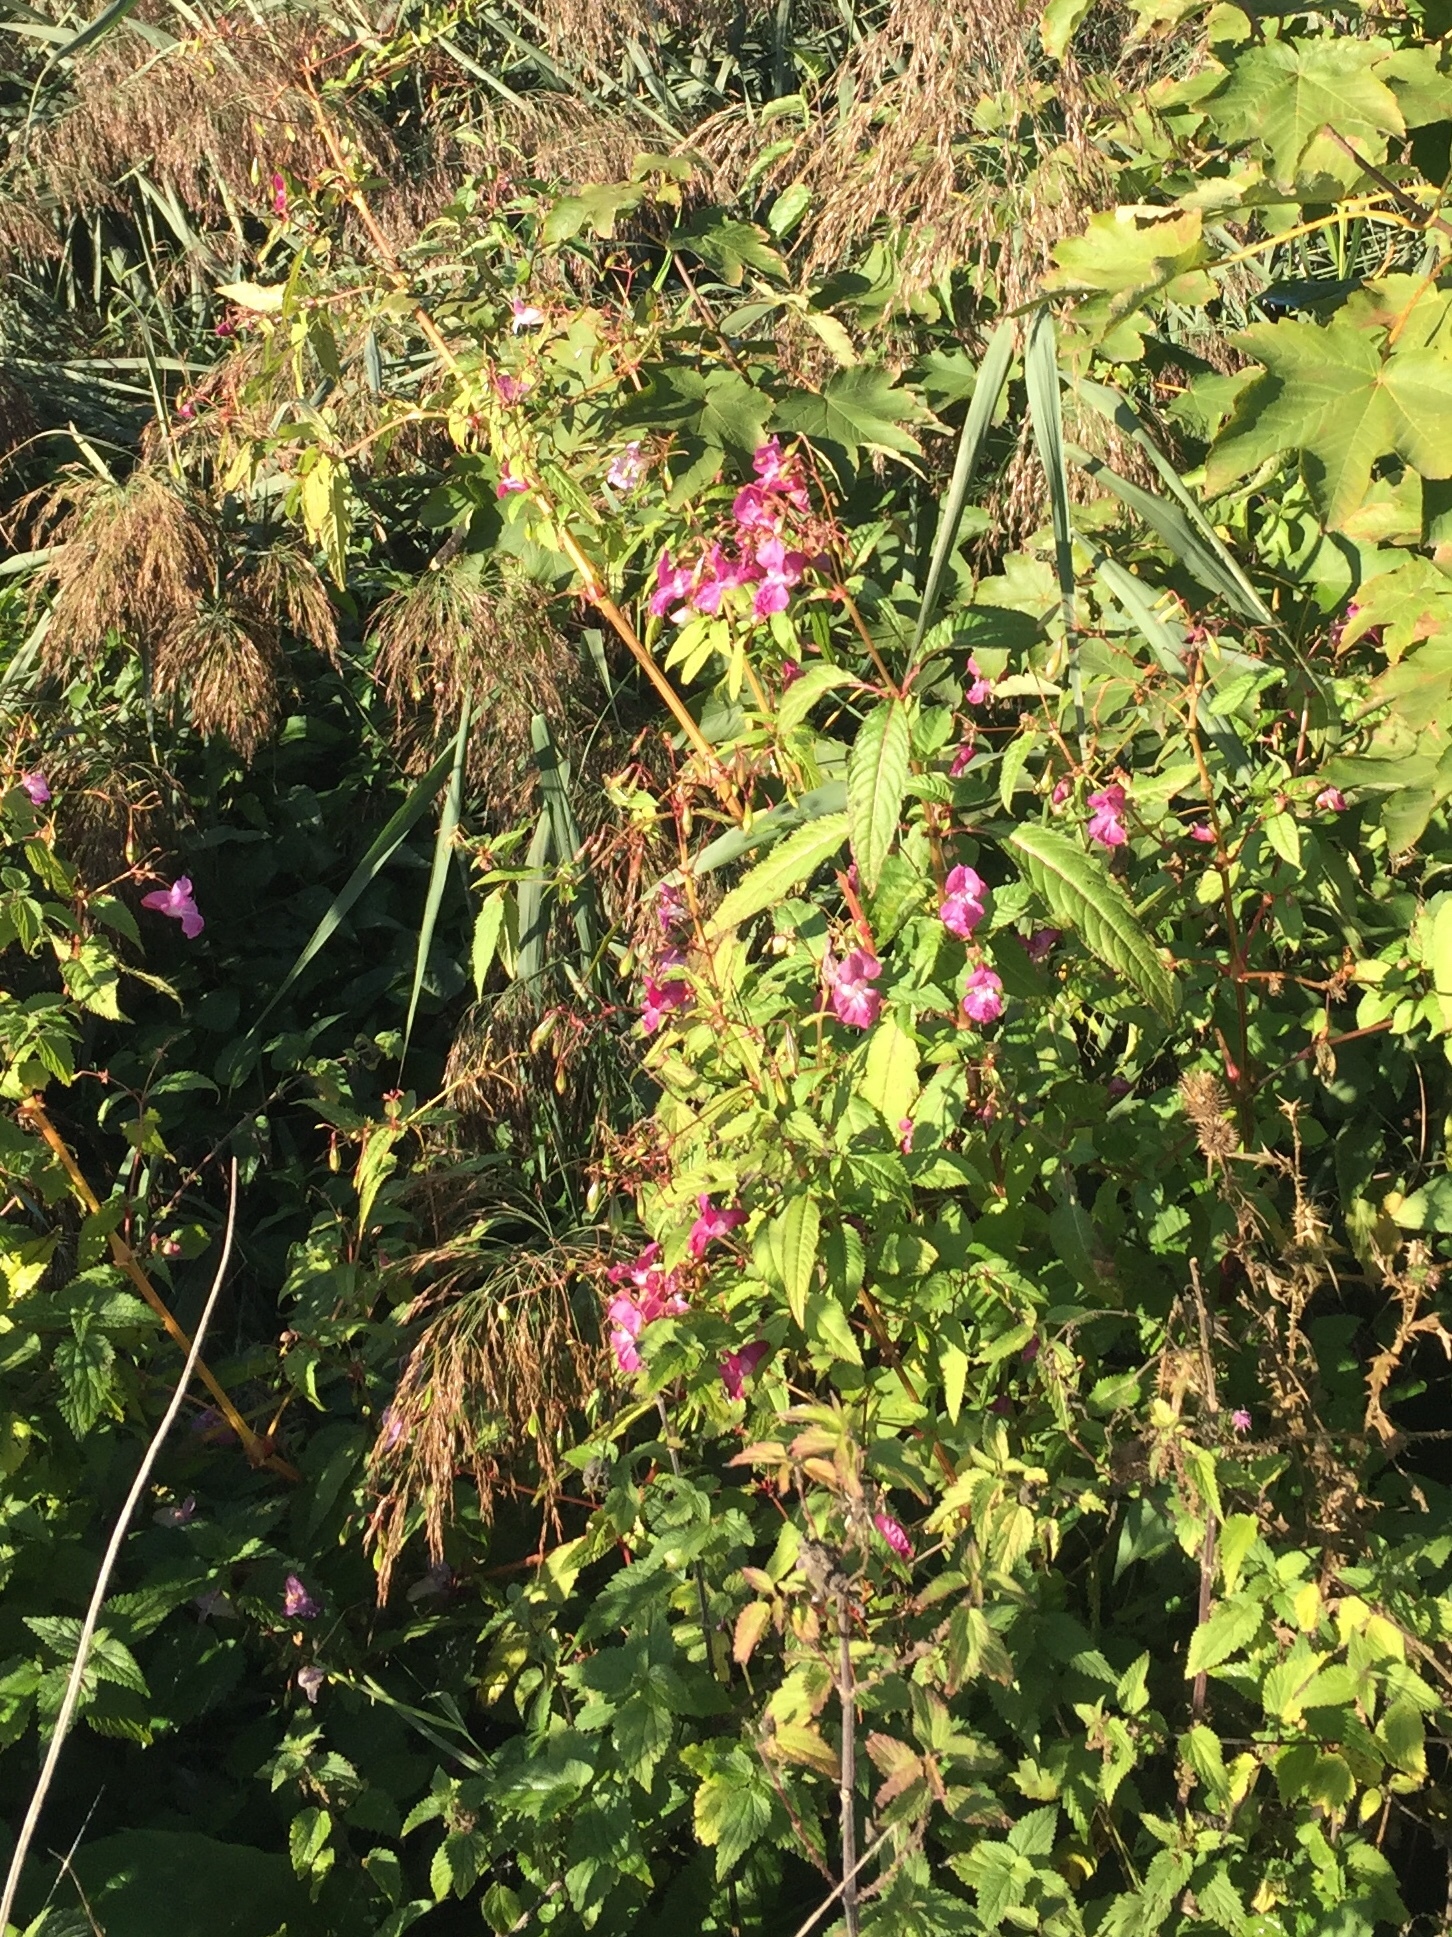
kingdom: Plantae
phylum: Tracheophyta
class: Magnoliopsida
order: Ericales
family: Balsaminaceae
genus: Impatiens
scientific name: Impatiens glandulifera
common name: Himalayan balsam
